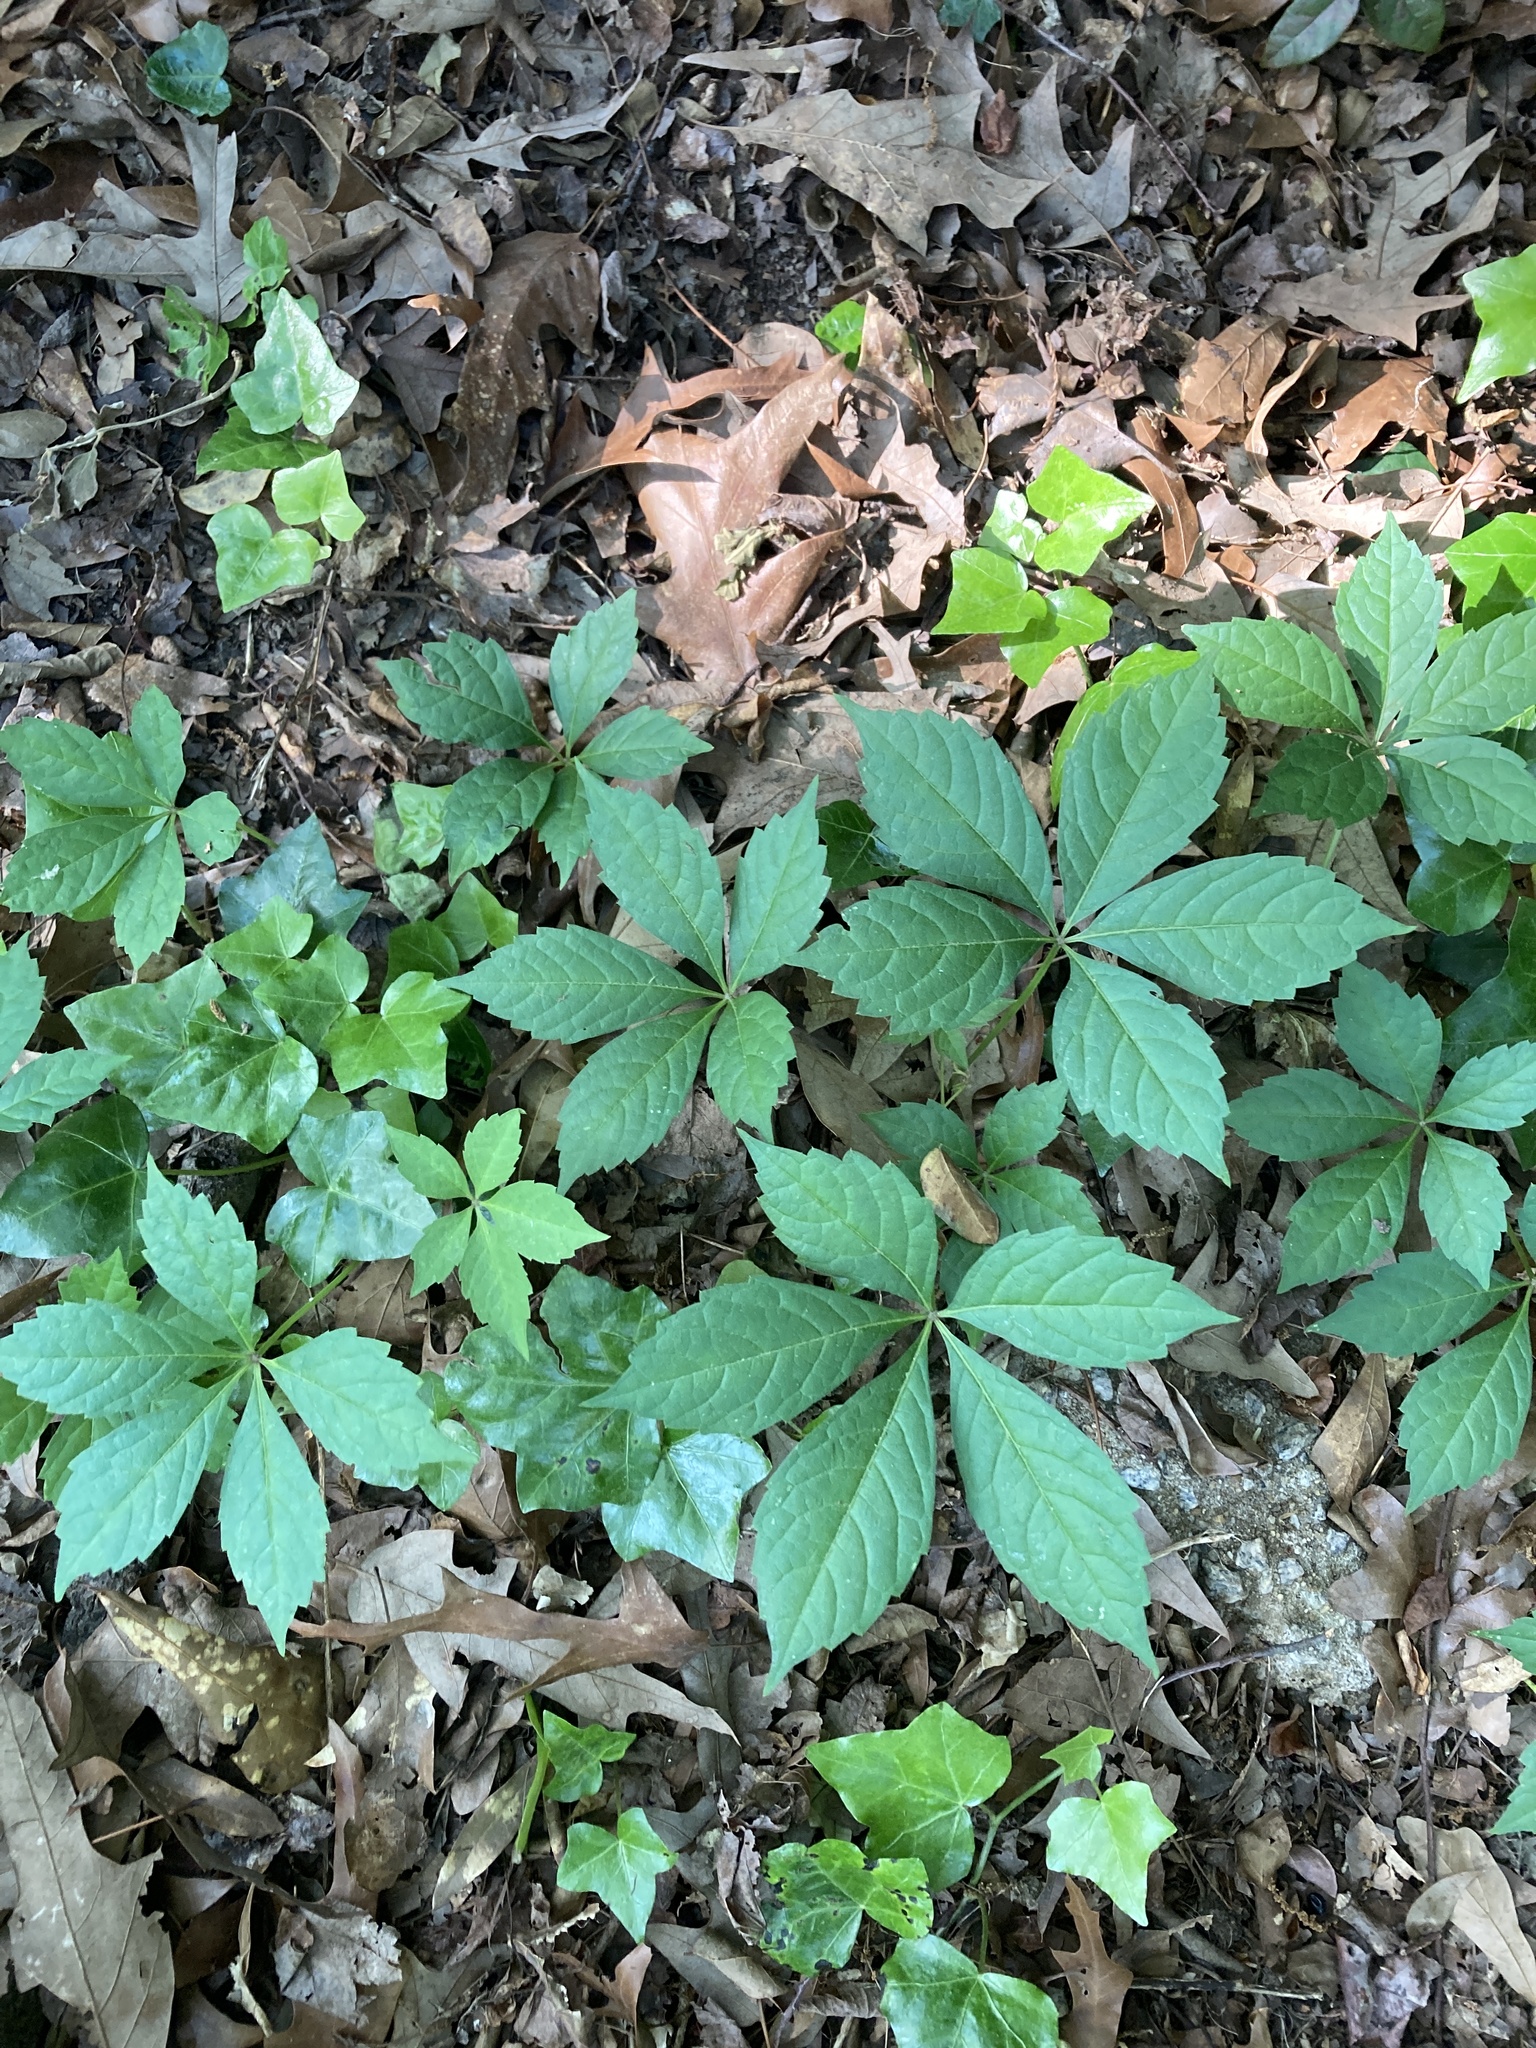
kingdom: Plantae
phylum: Tracheophyta
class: Magnoliopsida
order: Vitales
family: Vitaceae
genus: Parthenocissus
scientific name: Parthenocissus quinquefolia
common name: Virginia-creeper
